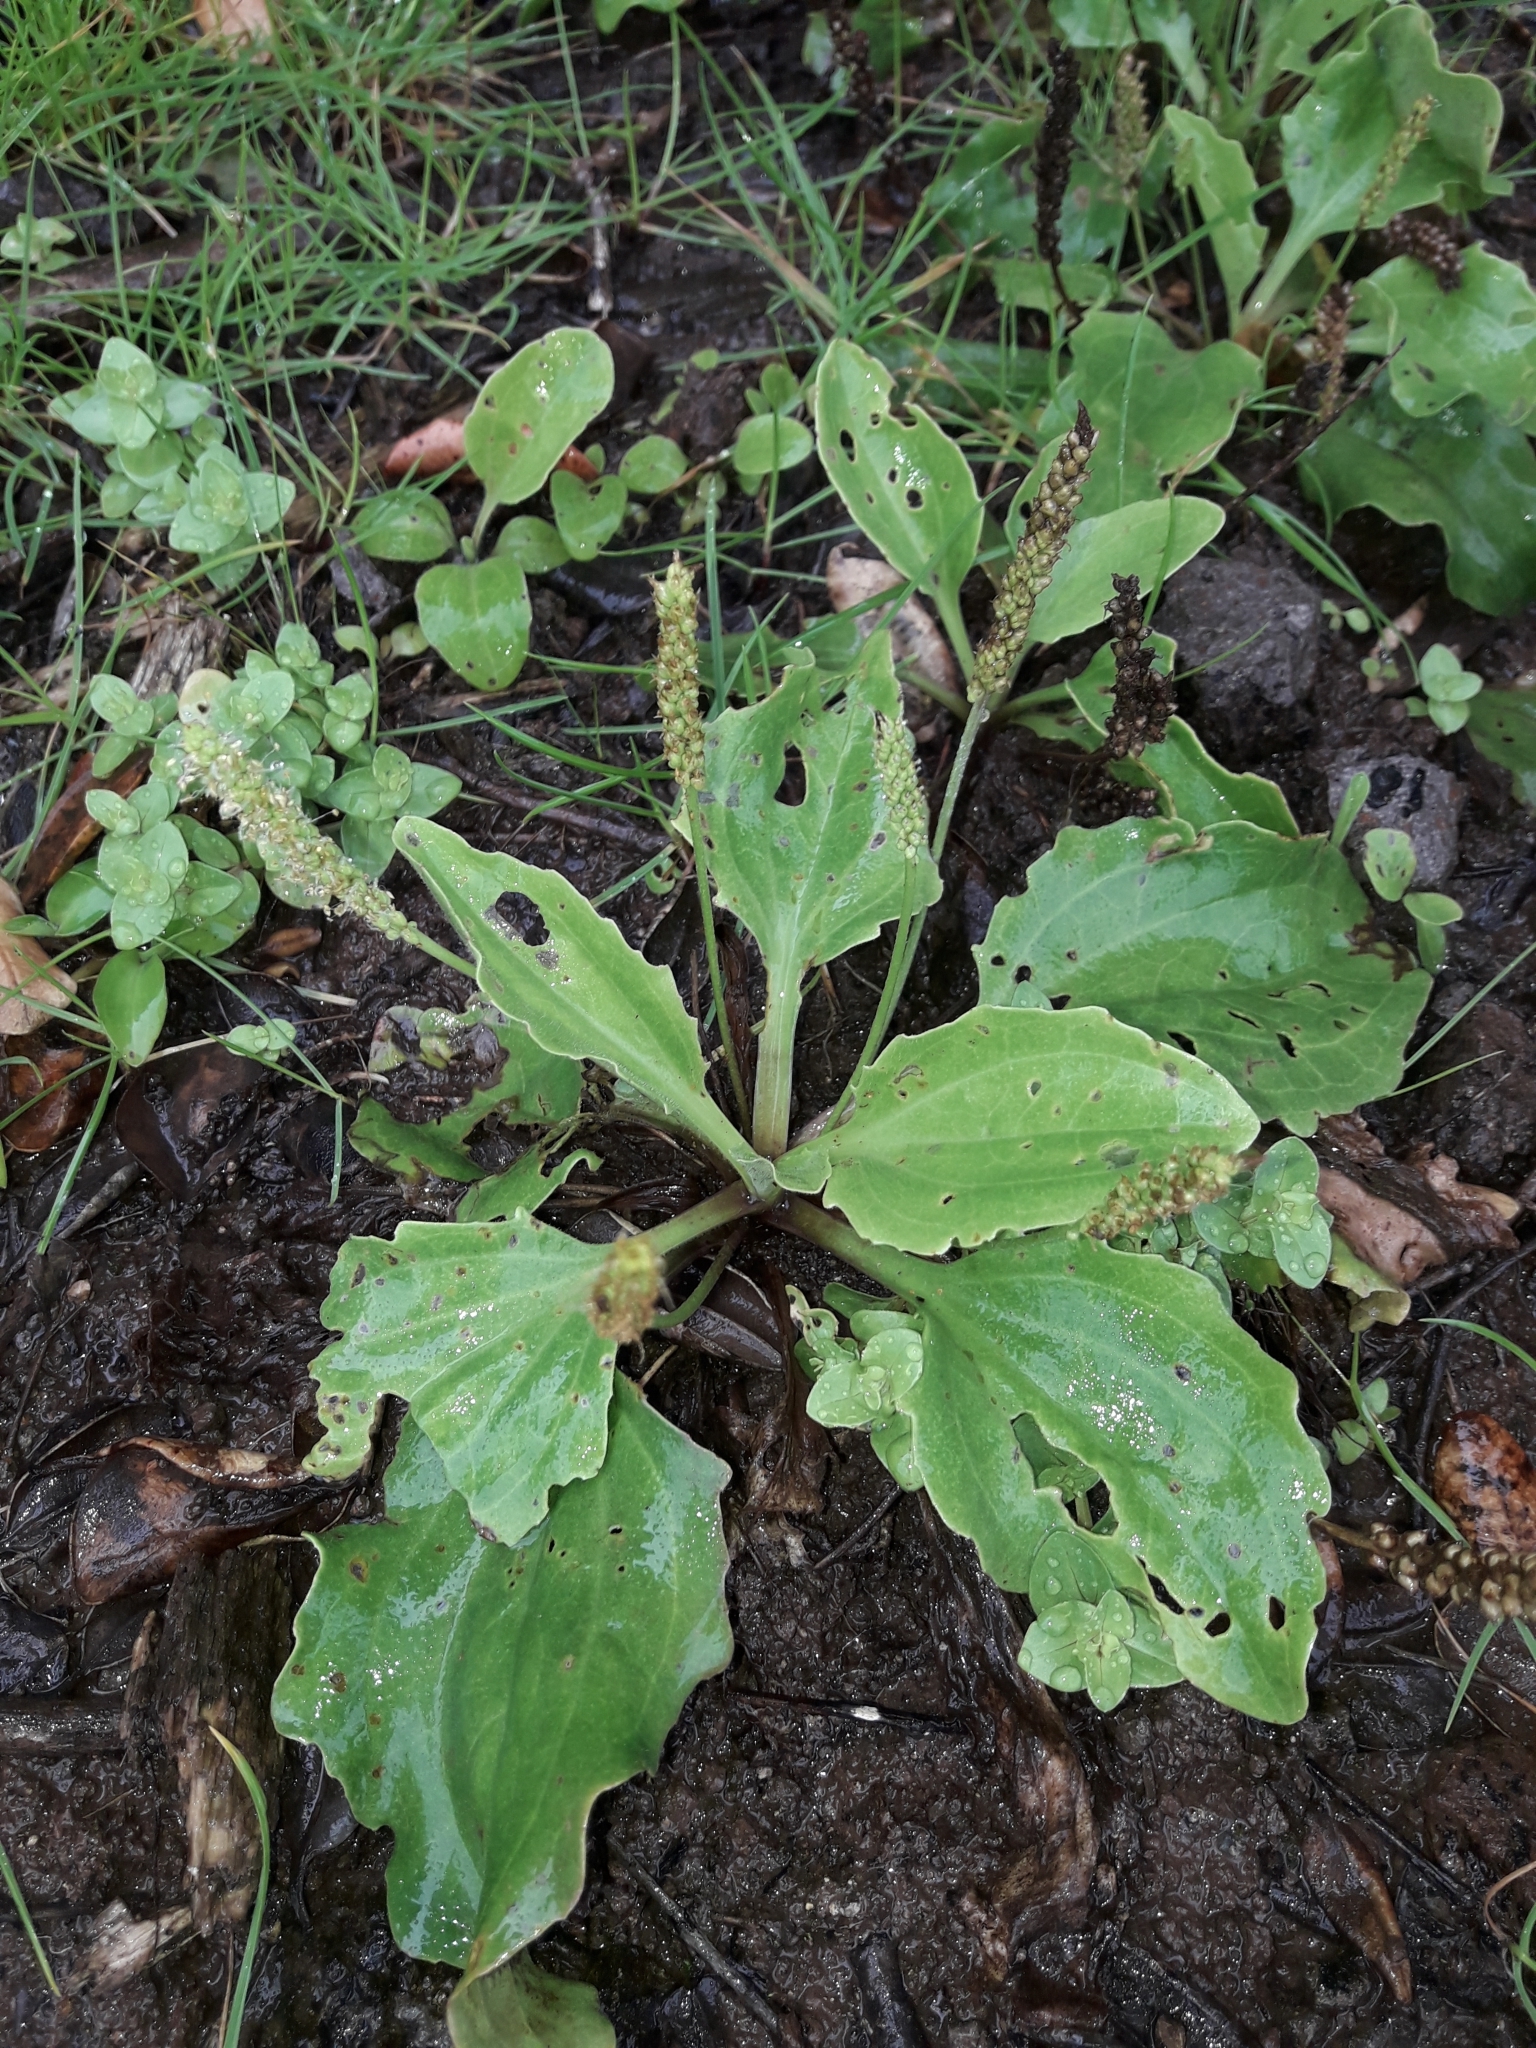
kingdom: Plantae
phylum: Tracheophyta
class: Magnoliopsida
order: Lamiales
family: Plantaginaceae
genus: Plantago
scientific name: Plantago major
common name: Common plantain
